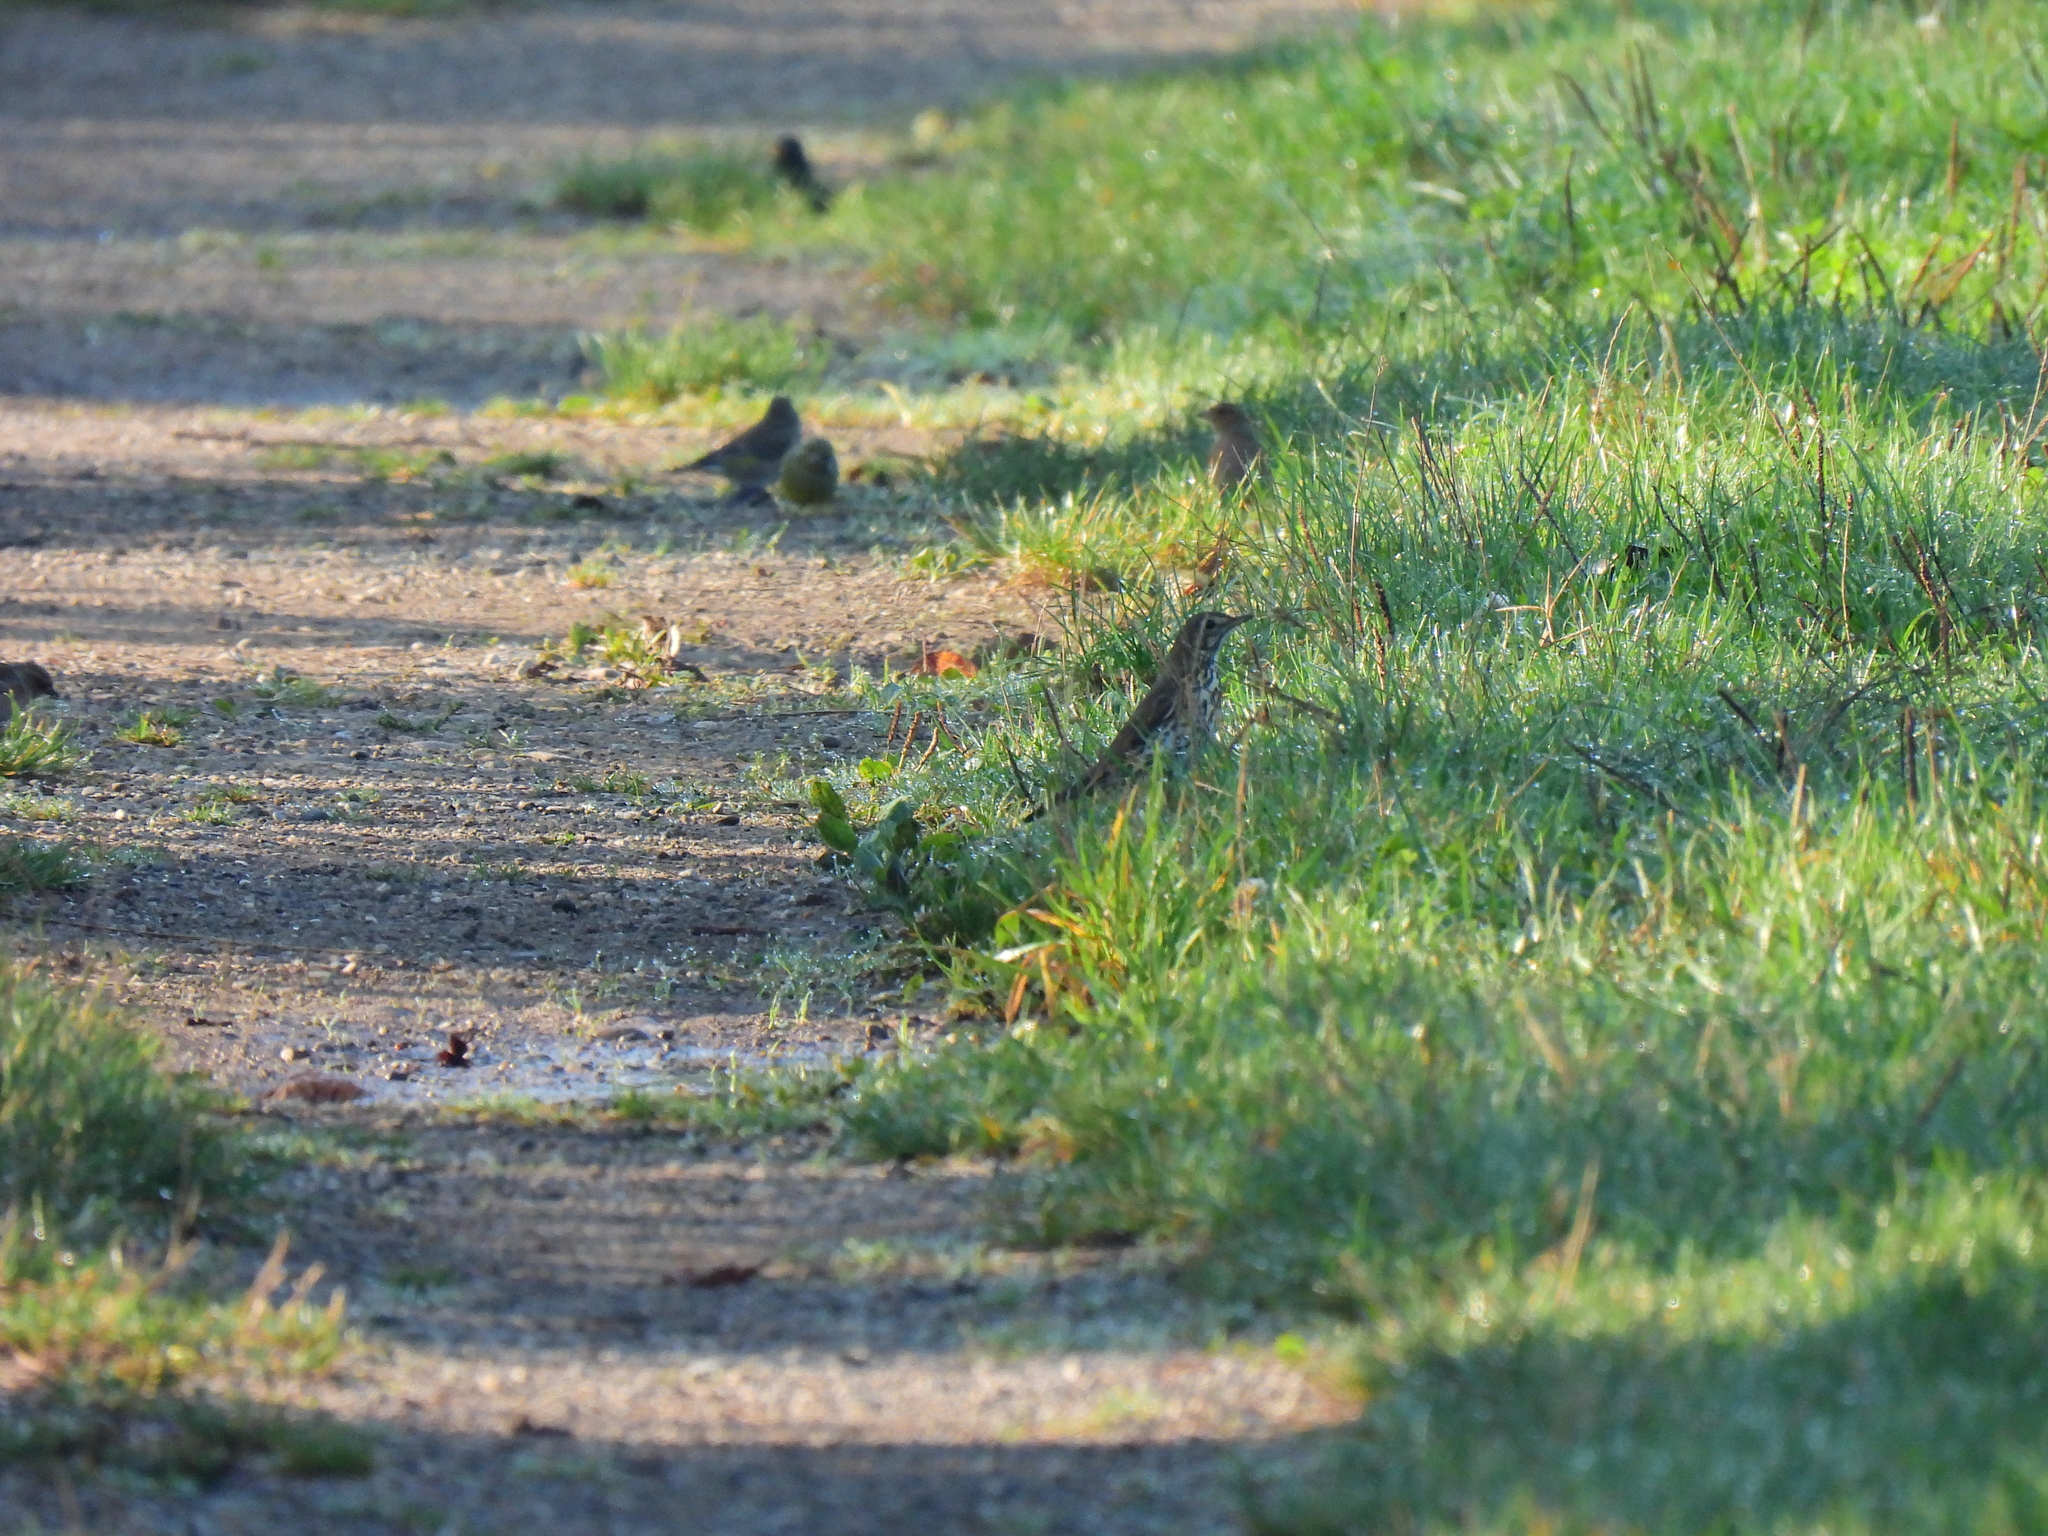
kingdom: Animalia
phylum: Chordata
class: Aves
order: Passeriformes
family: Turdidae
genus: Turdus
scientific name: Turdus viscivorus
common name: Mistle thrush
